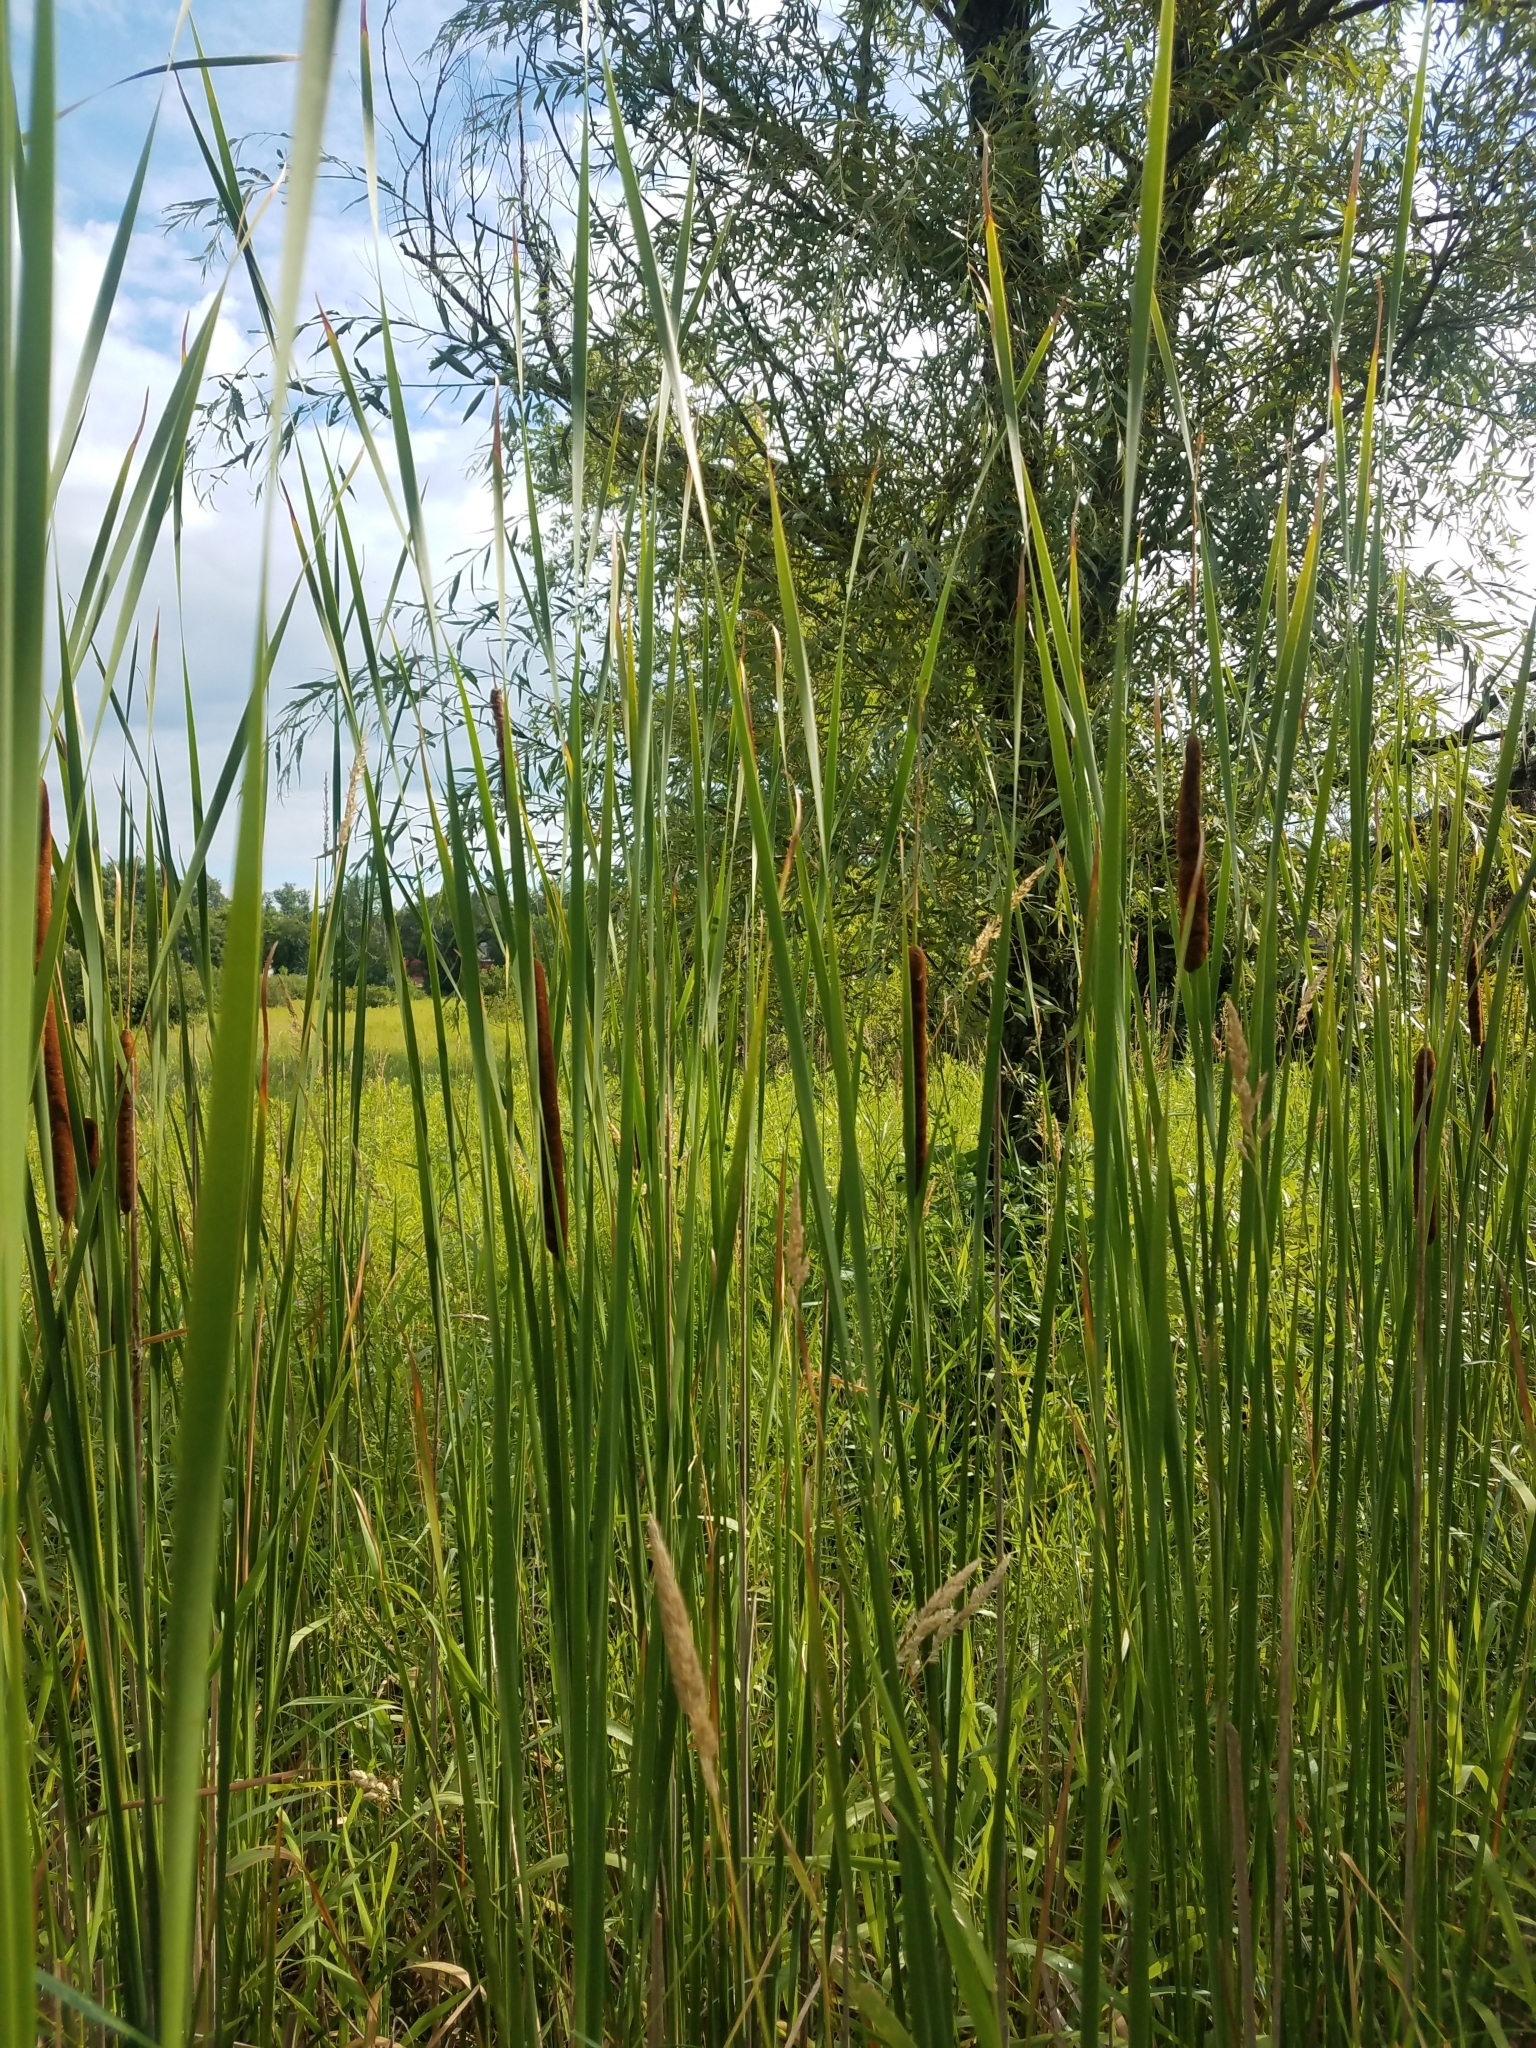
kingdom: Plantae
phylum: Tracheophyta
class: Liliopsida
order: Poales
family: Typhaceae
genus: Typha
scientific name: Typha angustifolia
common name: Lesser bulrush
